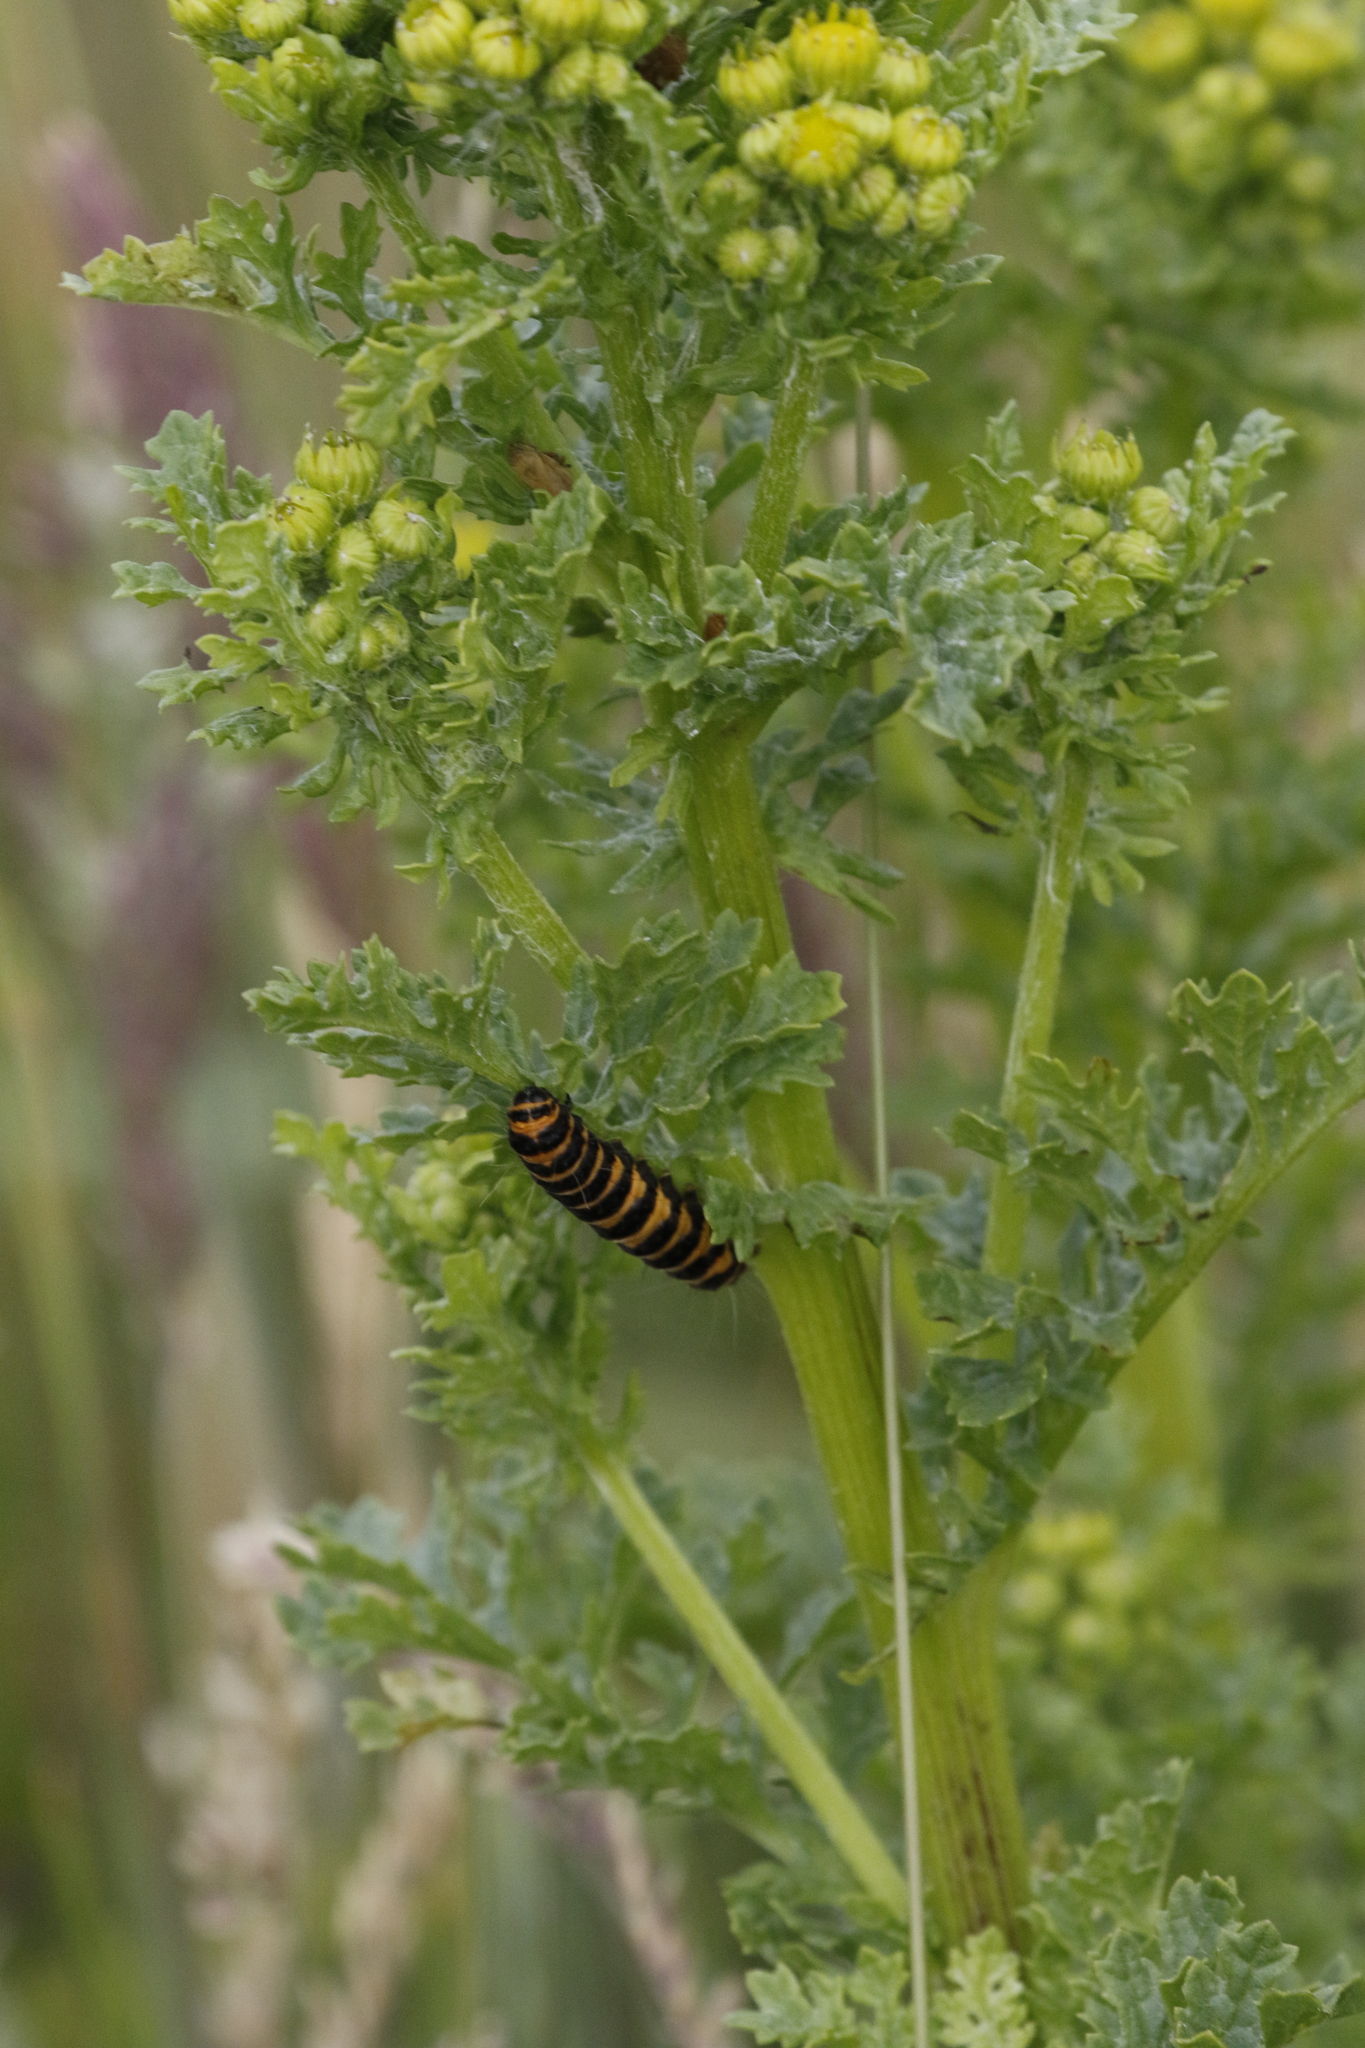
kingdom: Animalia
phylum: Arthropoda
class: Insecta
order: Lepidoptera
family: Erebidae
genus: Tyria
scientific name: Tyria jacobaeae
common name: Cinnabar
